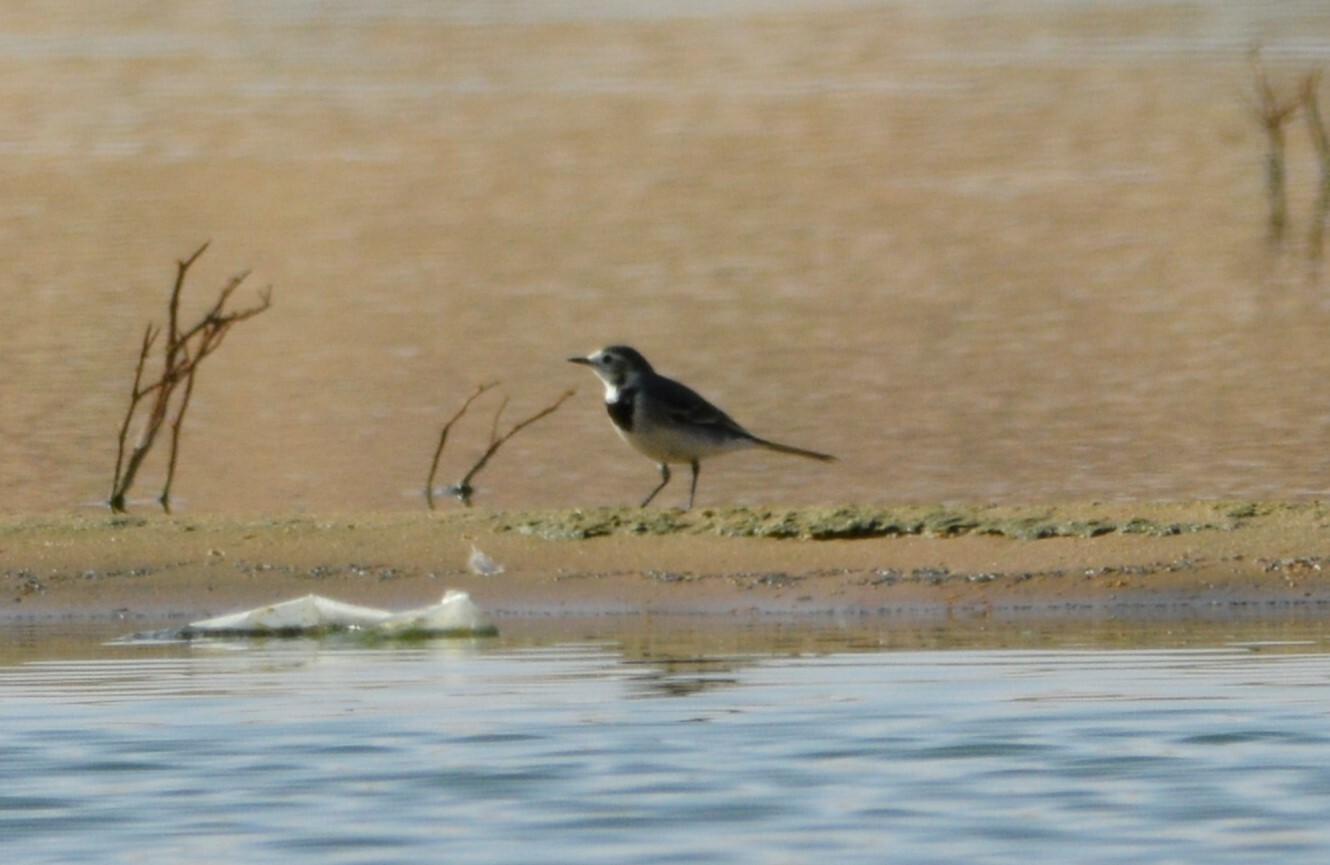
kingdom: Animalia
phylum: Chordata
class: Aves
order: Passeriformes
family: Motacillidae
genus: Motacilla
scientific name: Motacilla alba
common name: White wagtail
